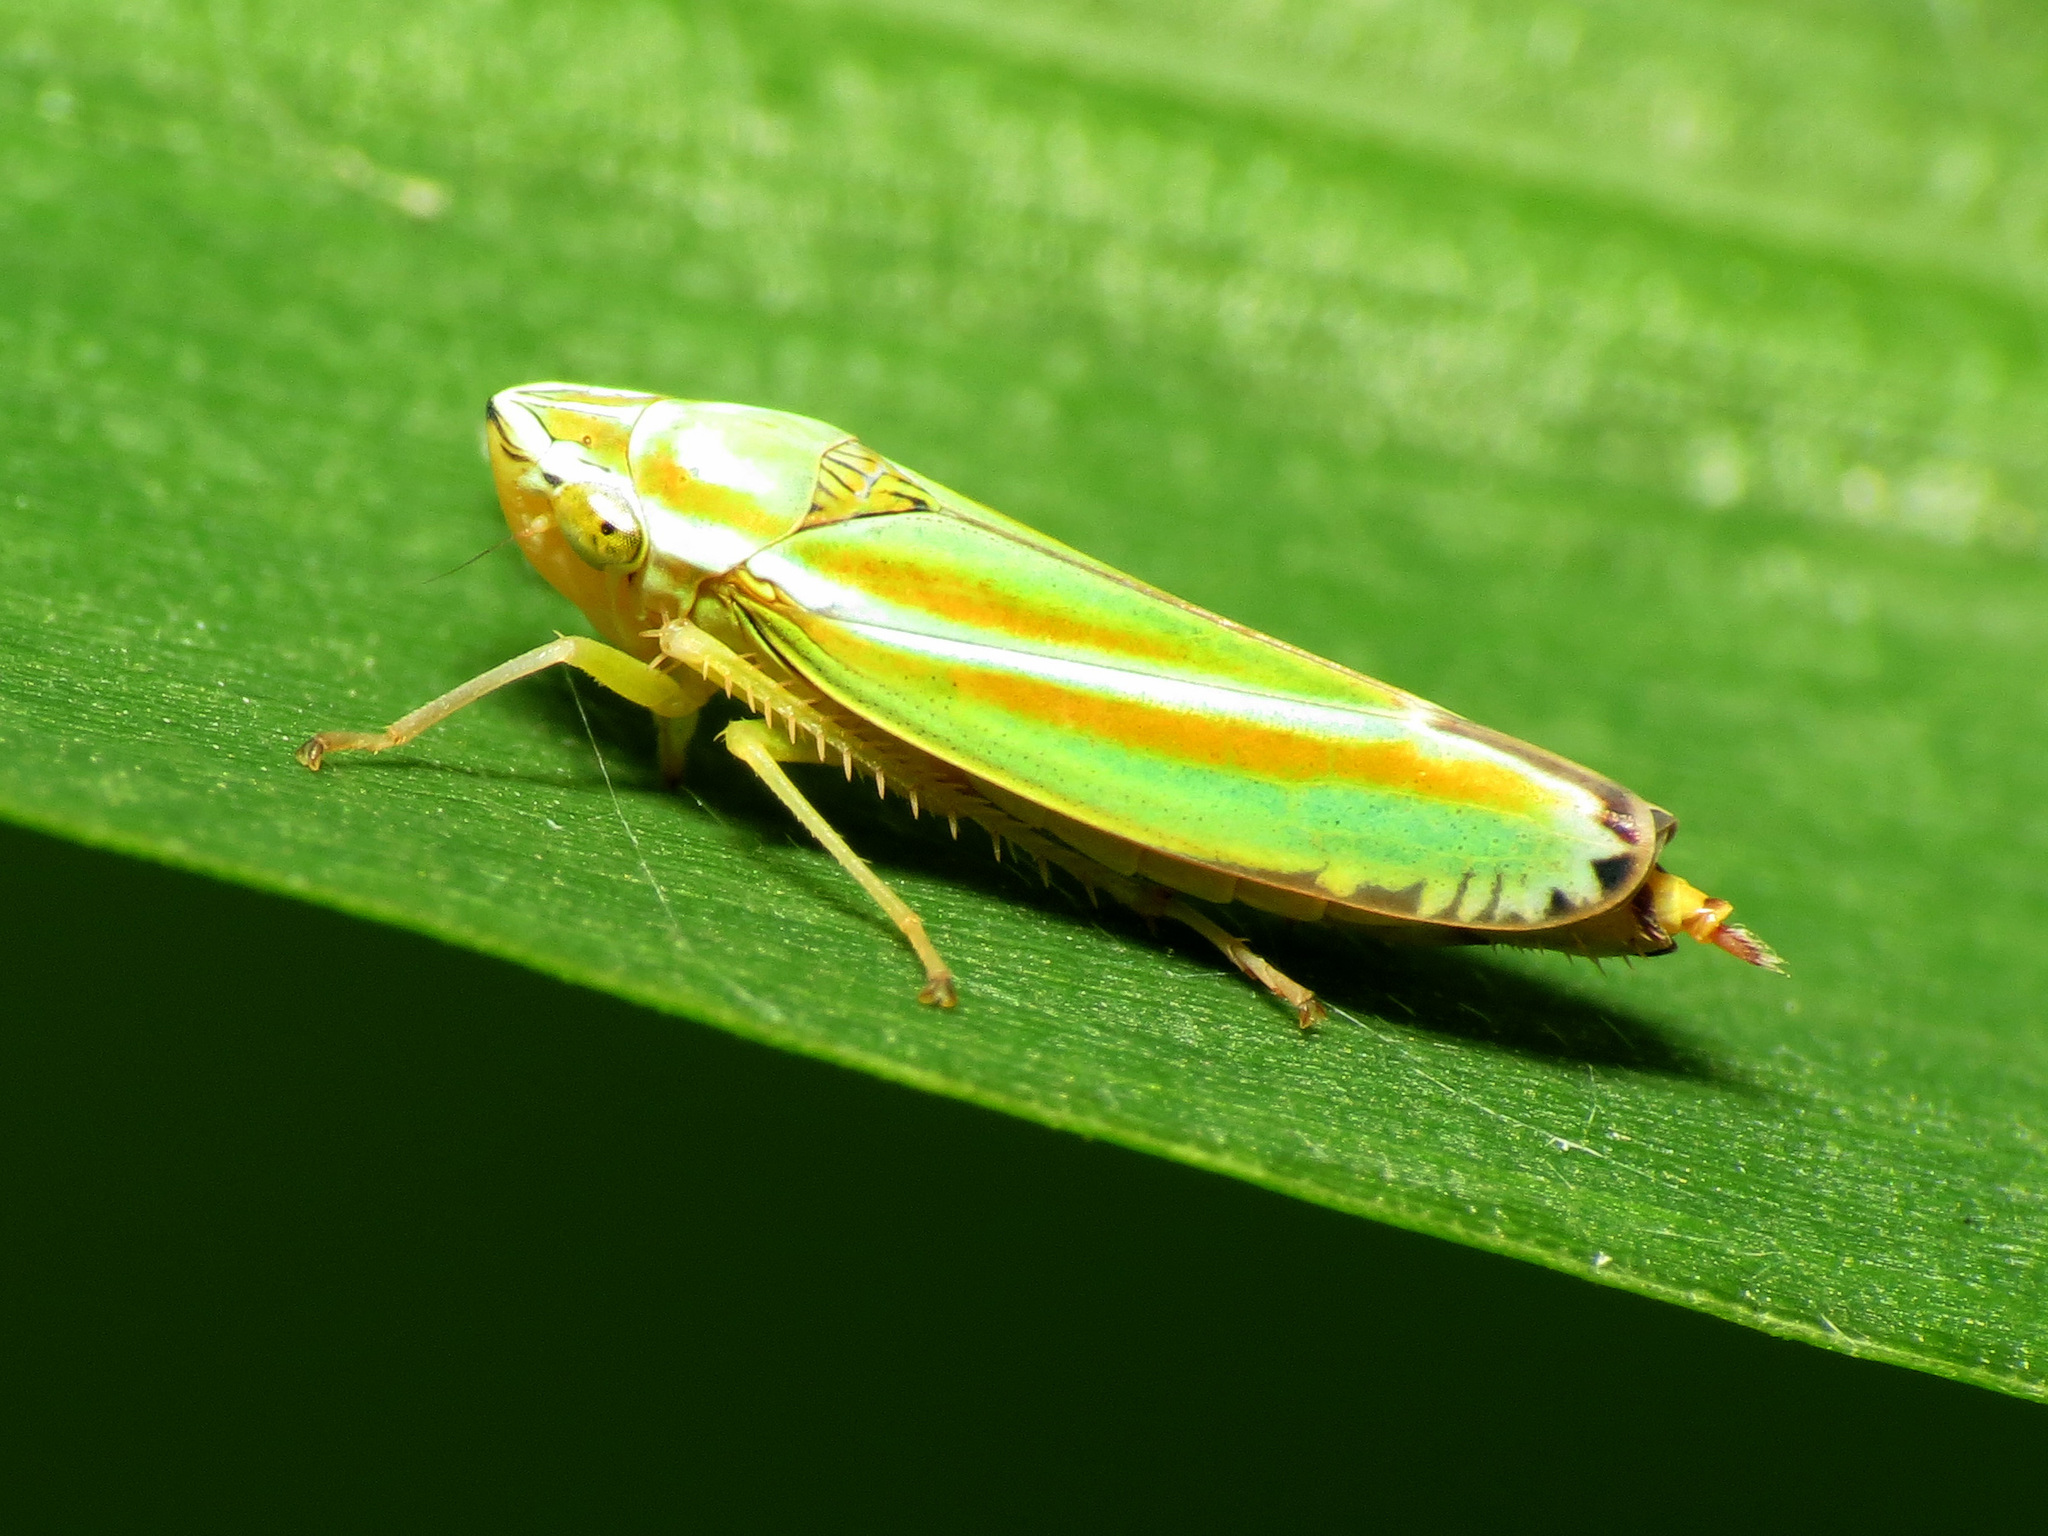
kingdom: Animalia
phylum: Arthropoda
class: Insecta
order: Hemiptera
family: Cicadellidae
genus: Graphocephala
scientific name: Graphocephala versuta
